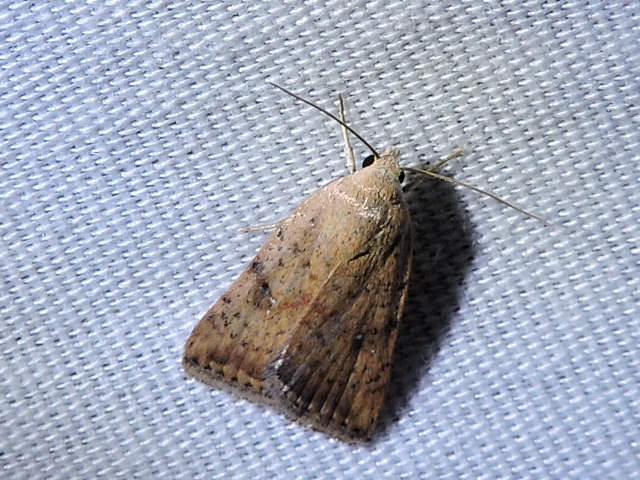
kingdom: Animalia
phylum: Arthropoda
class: Insecta
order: Lepidoptera
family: Noctuidae
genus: Micrathetis
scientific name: Micrathetis triplex
